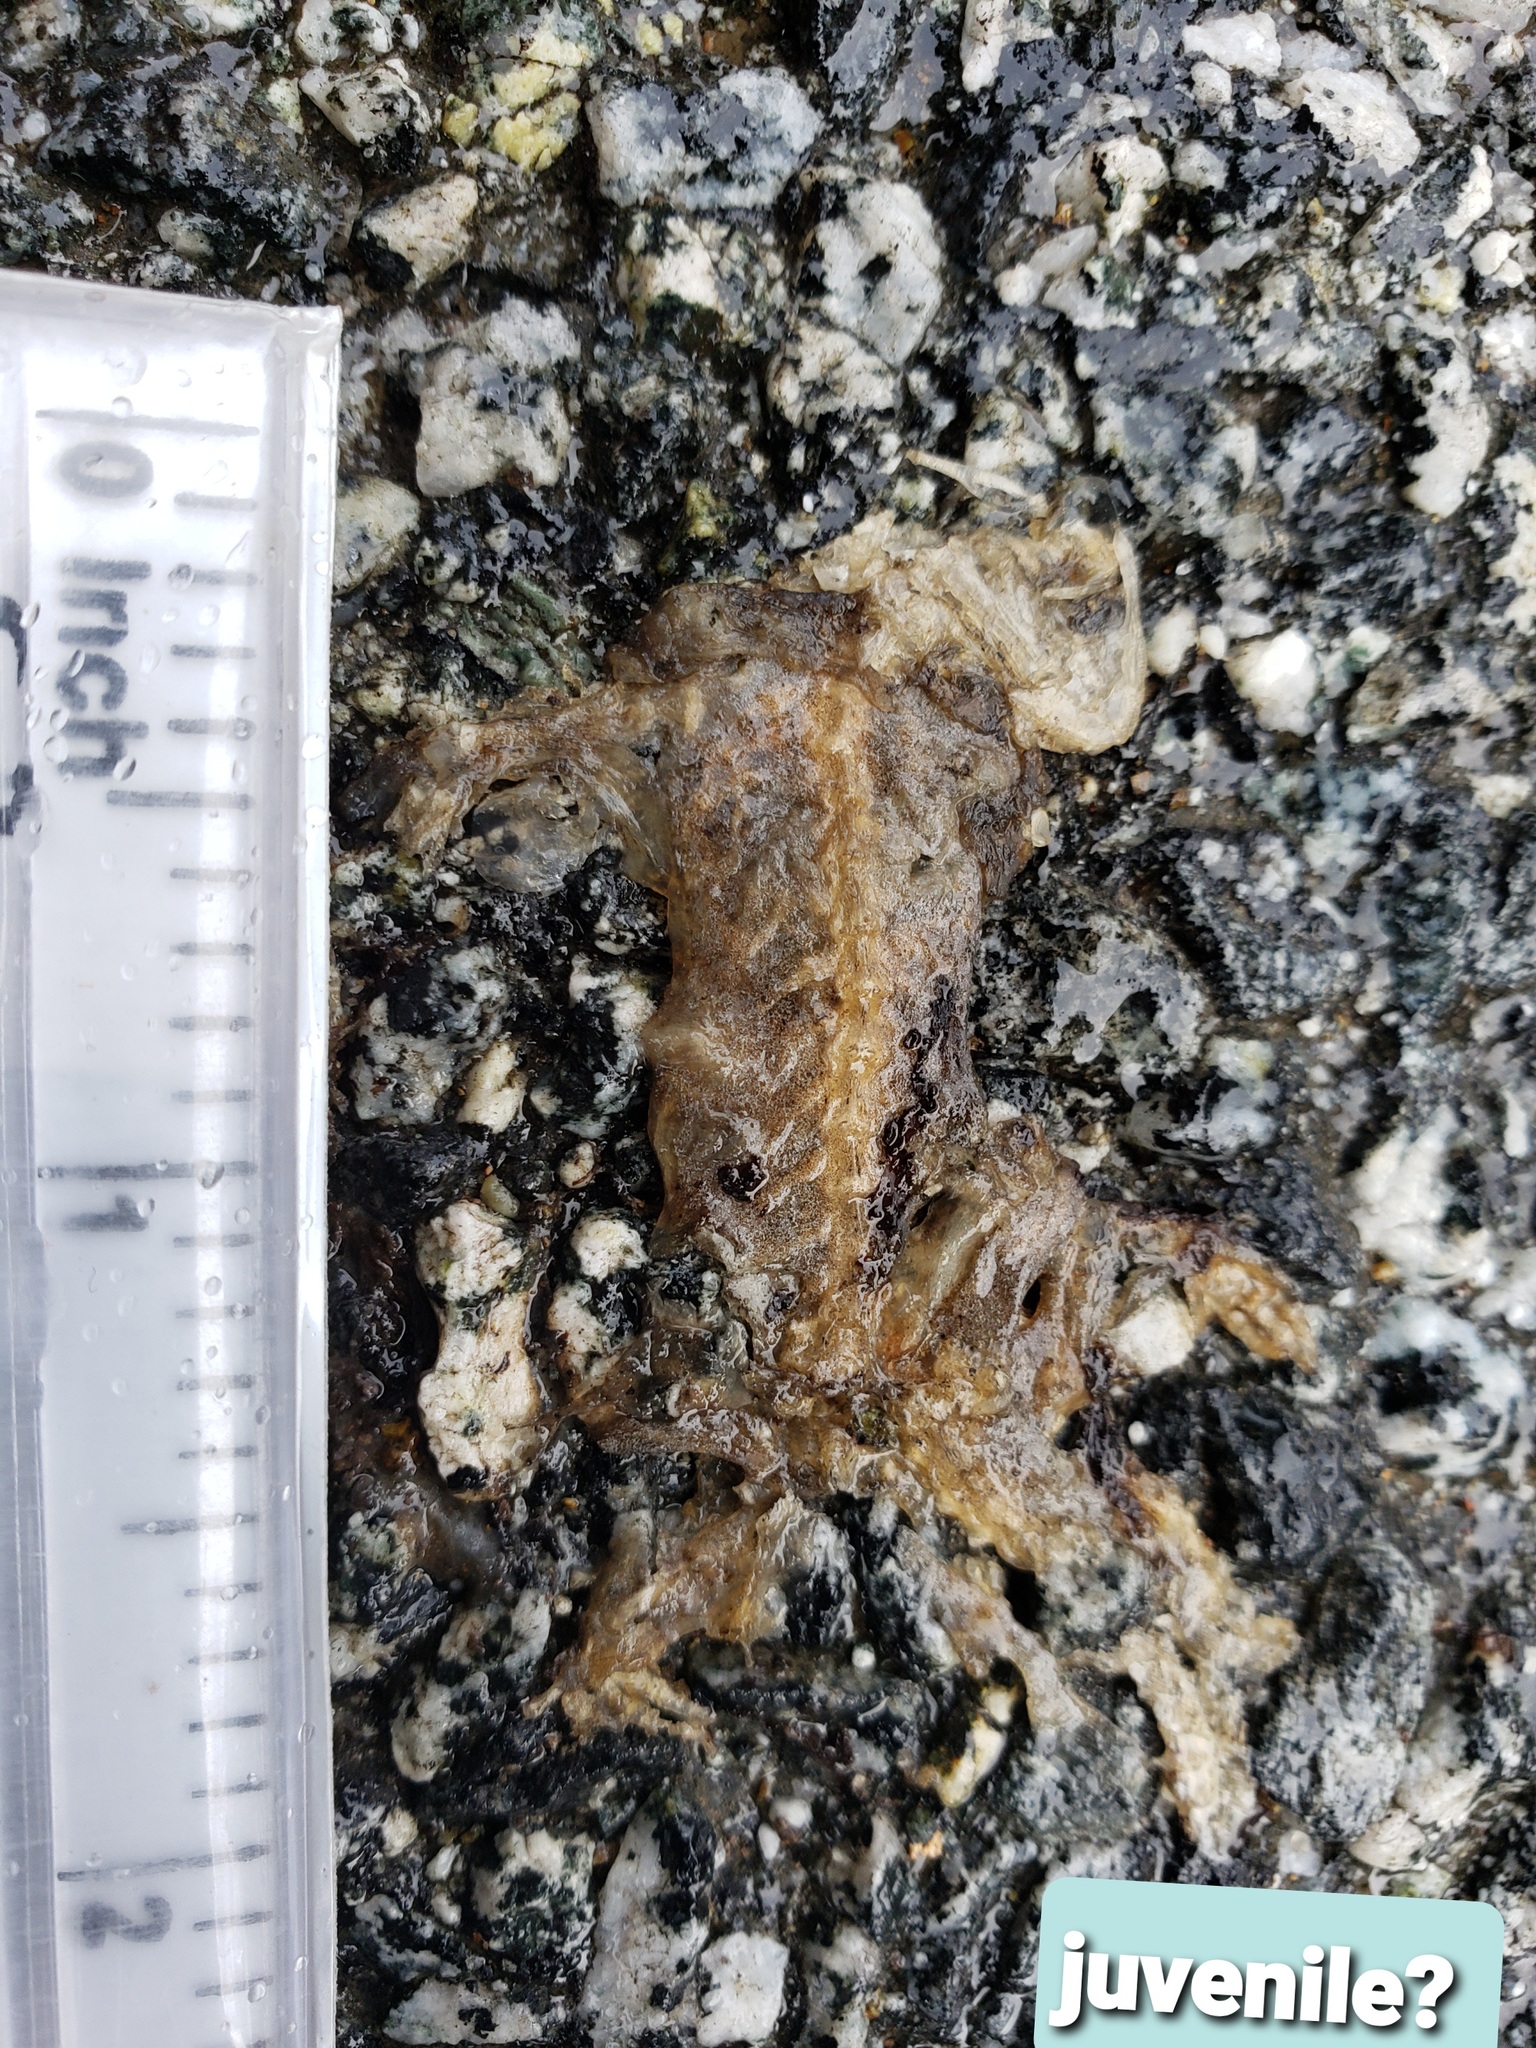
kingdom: Animalia
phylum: Chordata
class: Amphibia
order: Caudata
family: Salamandridae
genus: Taricha
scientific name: Taricha
